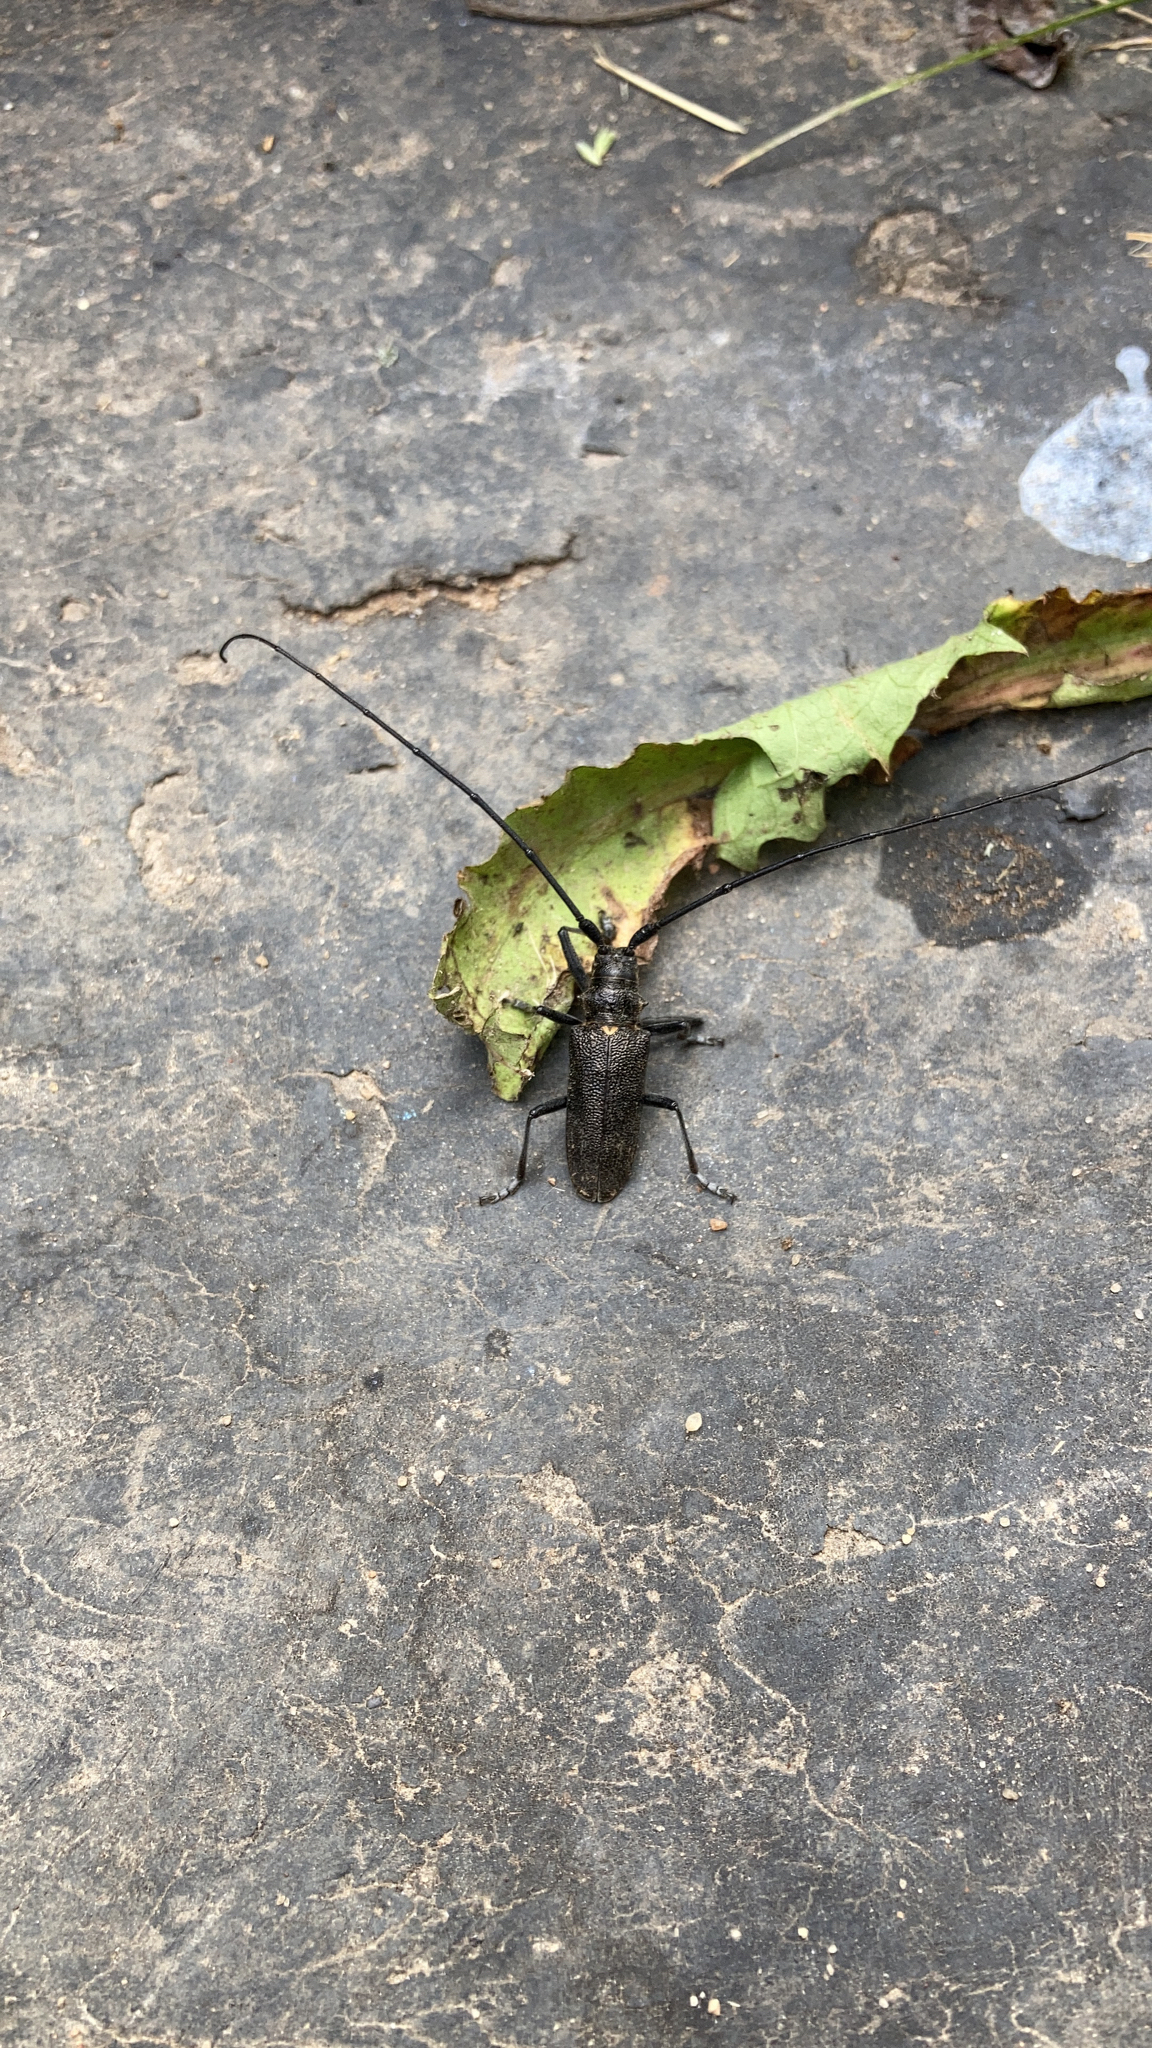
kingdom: Animalia
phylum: Arthropoda
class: Insecta
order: Coleoptera
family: Cerambycidae
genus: Monochamus
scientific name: Monochamus galloprovincialis
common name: Pine sawyer
